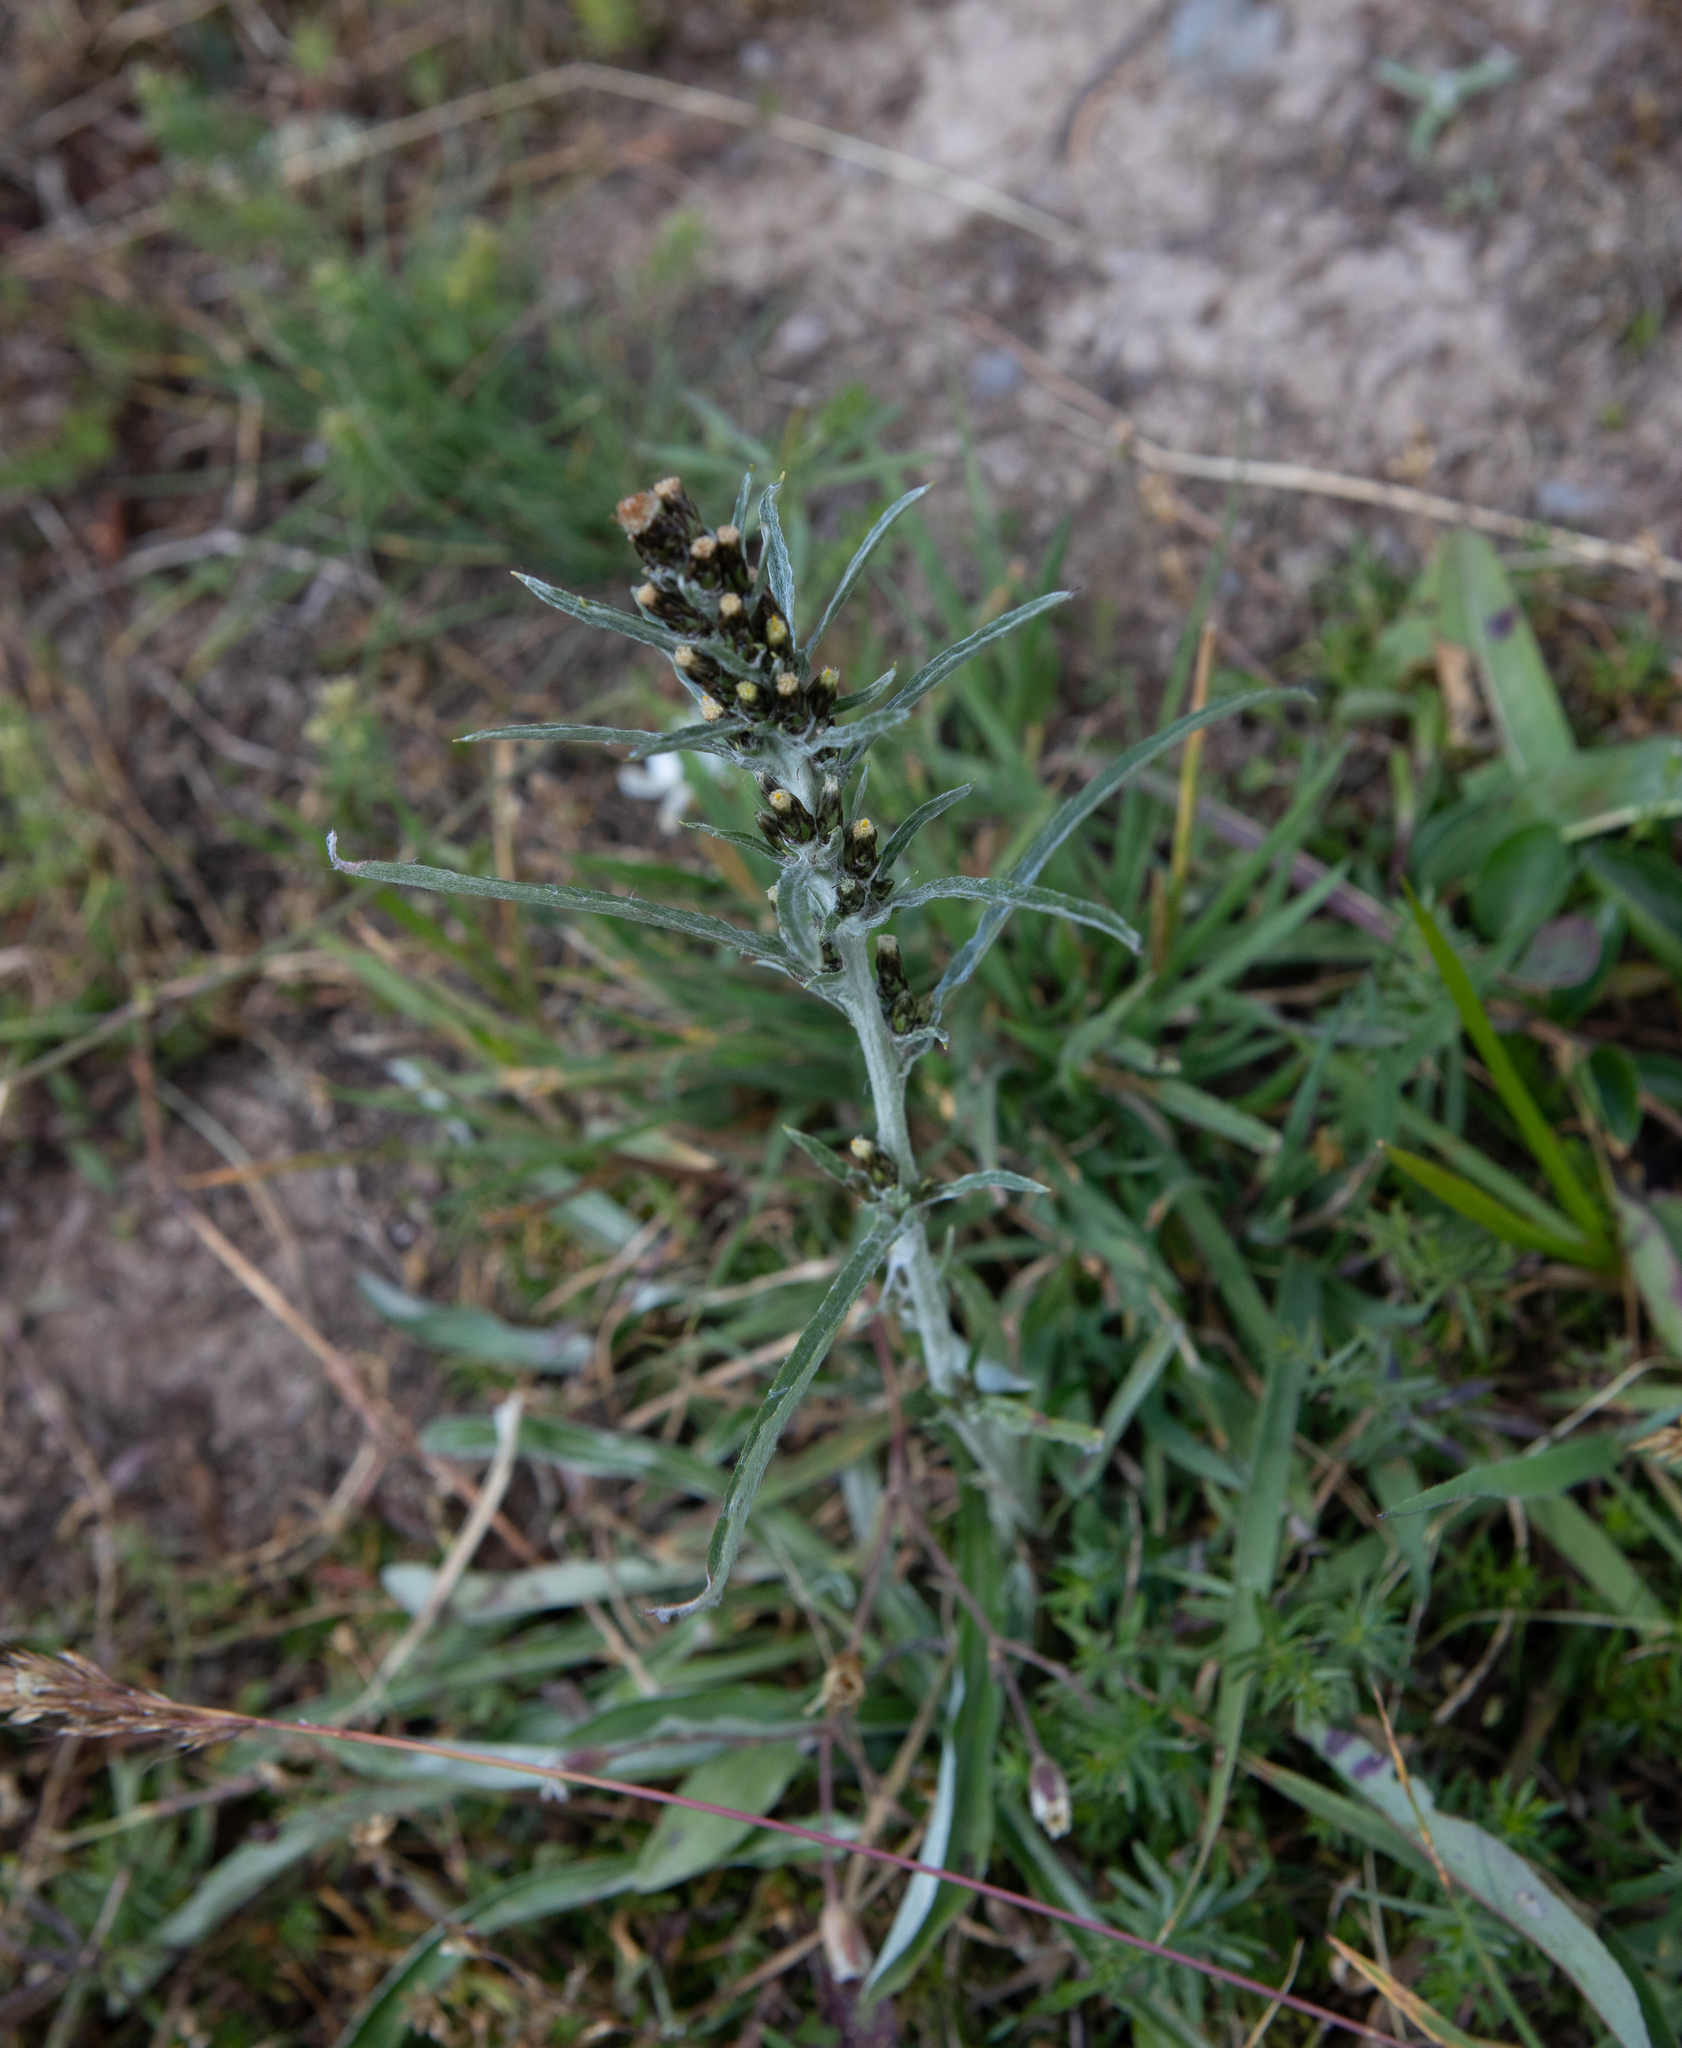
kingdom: Plantae
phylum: Tracheophyta
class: Magnoliopsida
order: Asterales
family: Asteraceae
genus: Omalotheca
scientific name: Omalotheca sylvatica
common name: Heath cudweed
